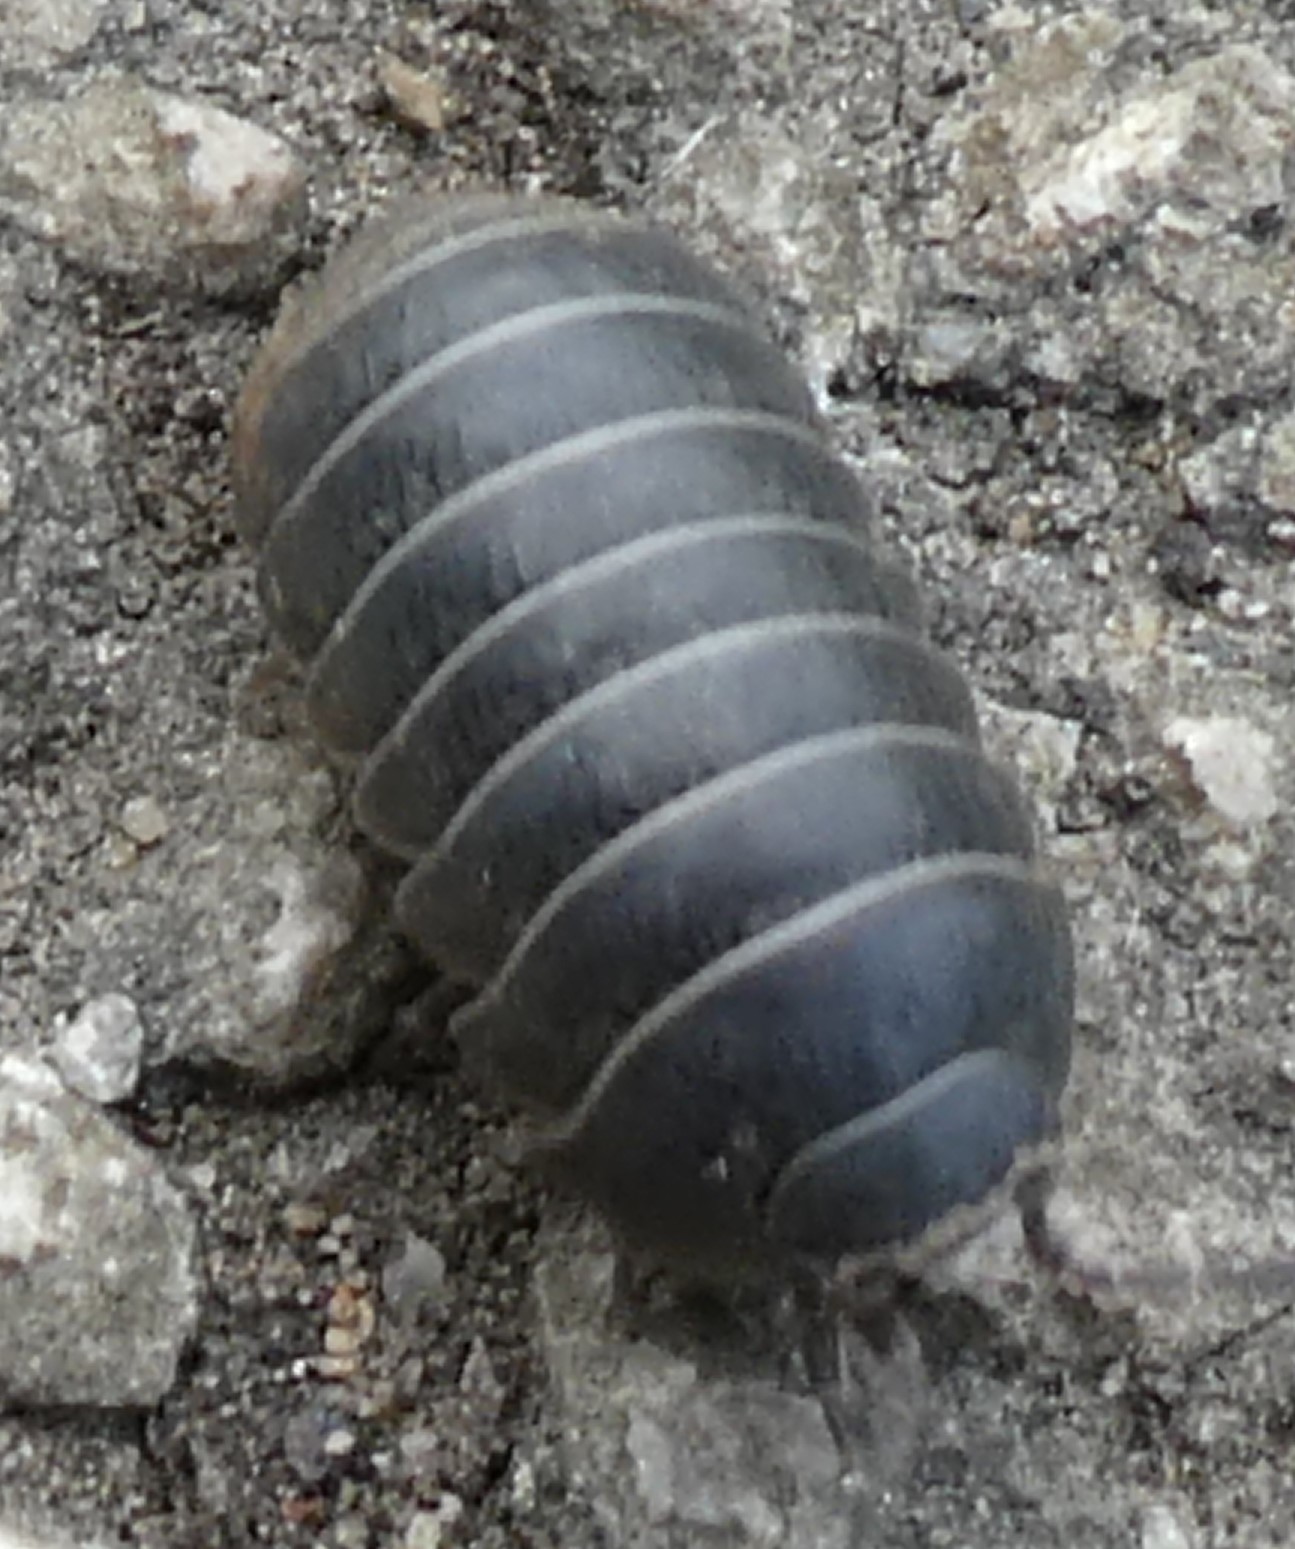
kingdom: Animalia
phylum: Arthropoda
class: Malacostraca
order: Isopoda
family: Armadillidiidae
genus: Armadillidium
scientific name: Armadillidium vulgare
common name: Common pill woodlouse
